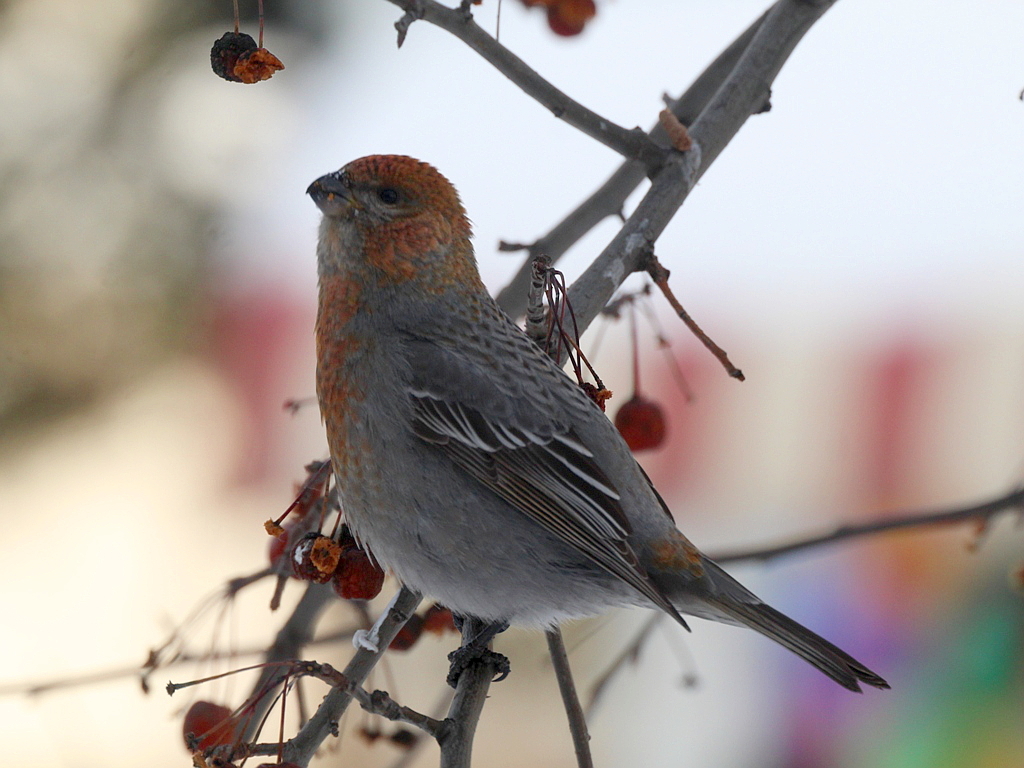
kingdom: Animalia
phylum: Chordata
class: Aves
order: Passeriformes
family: Fringillidae
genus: Pinicola
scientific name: Pinicola enucleator
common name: Pine grosbeak
